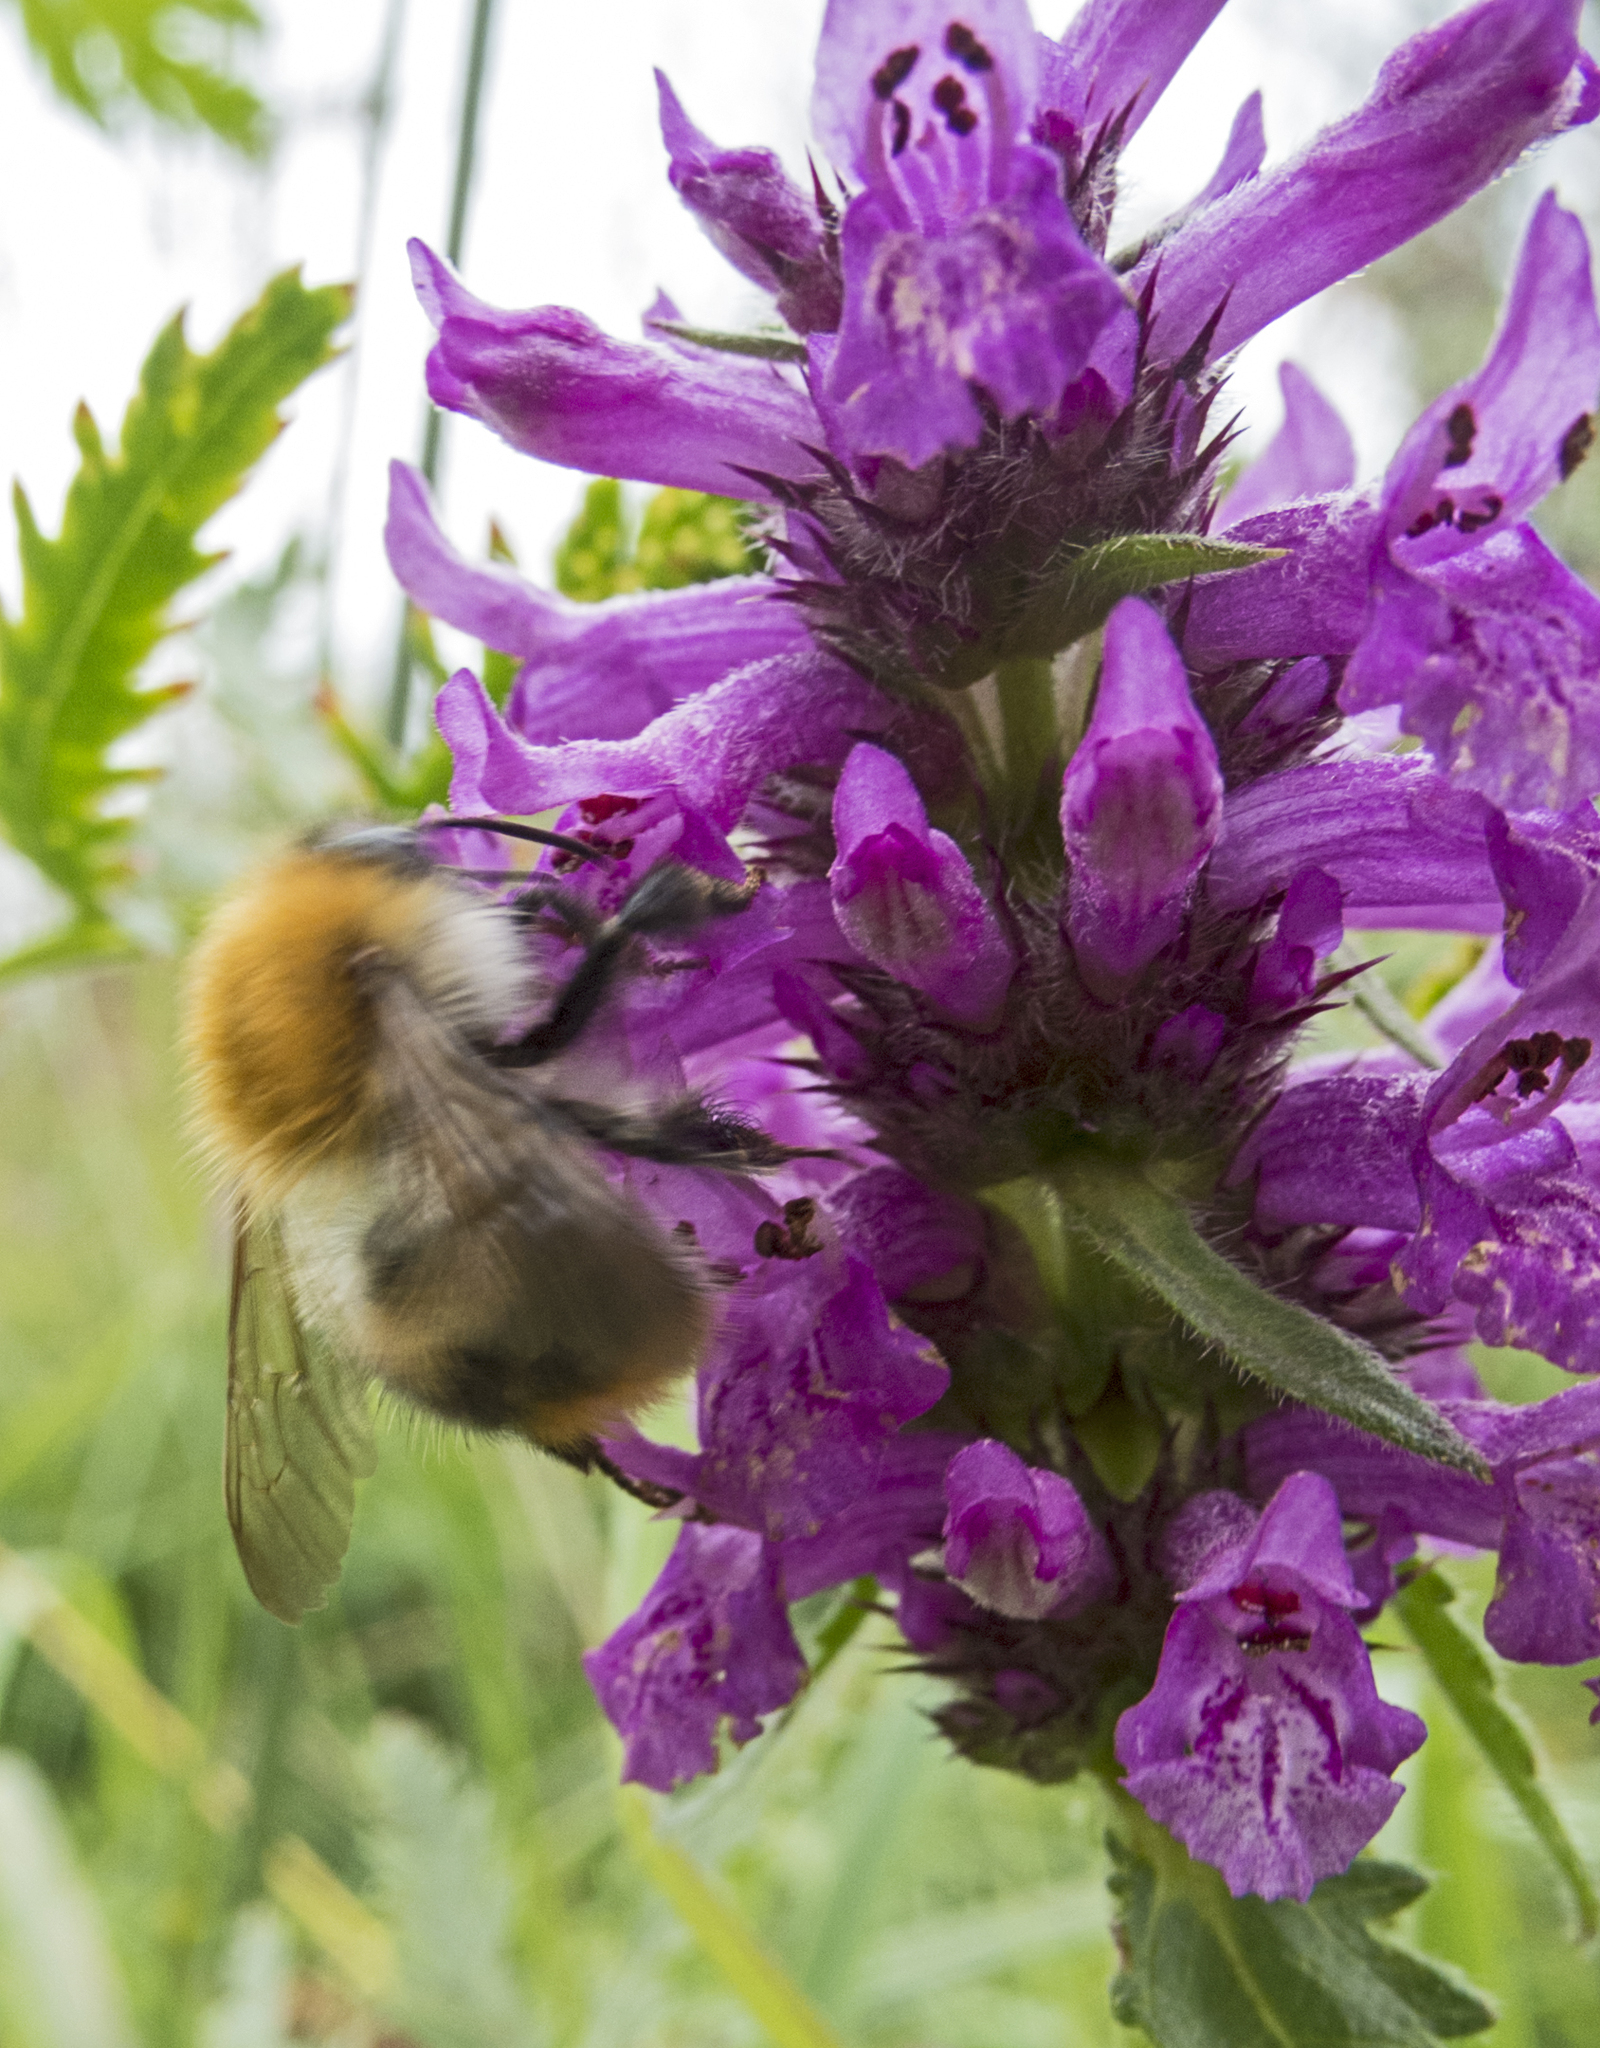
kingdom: Animalia
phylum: Arthropoda
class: Insecta
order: Hymenoptera
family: Apidae
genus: Bombus
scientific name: Bombus pascuorum
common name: Common carder bee
